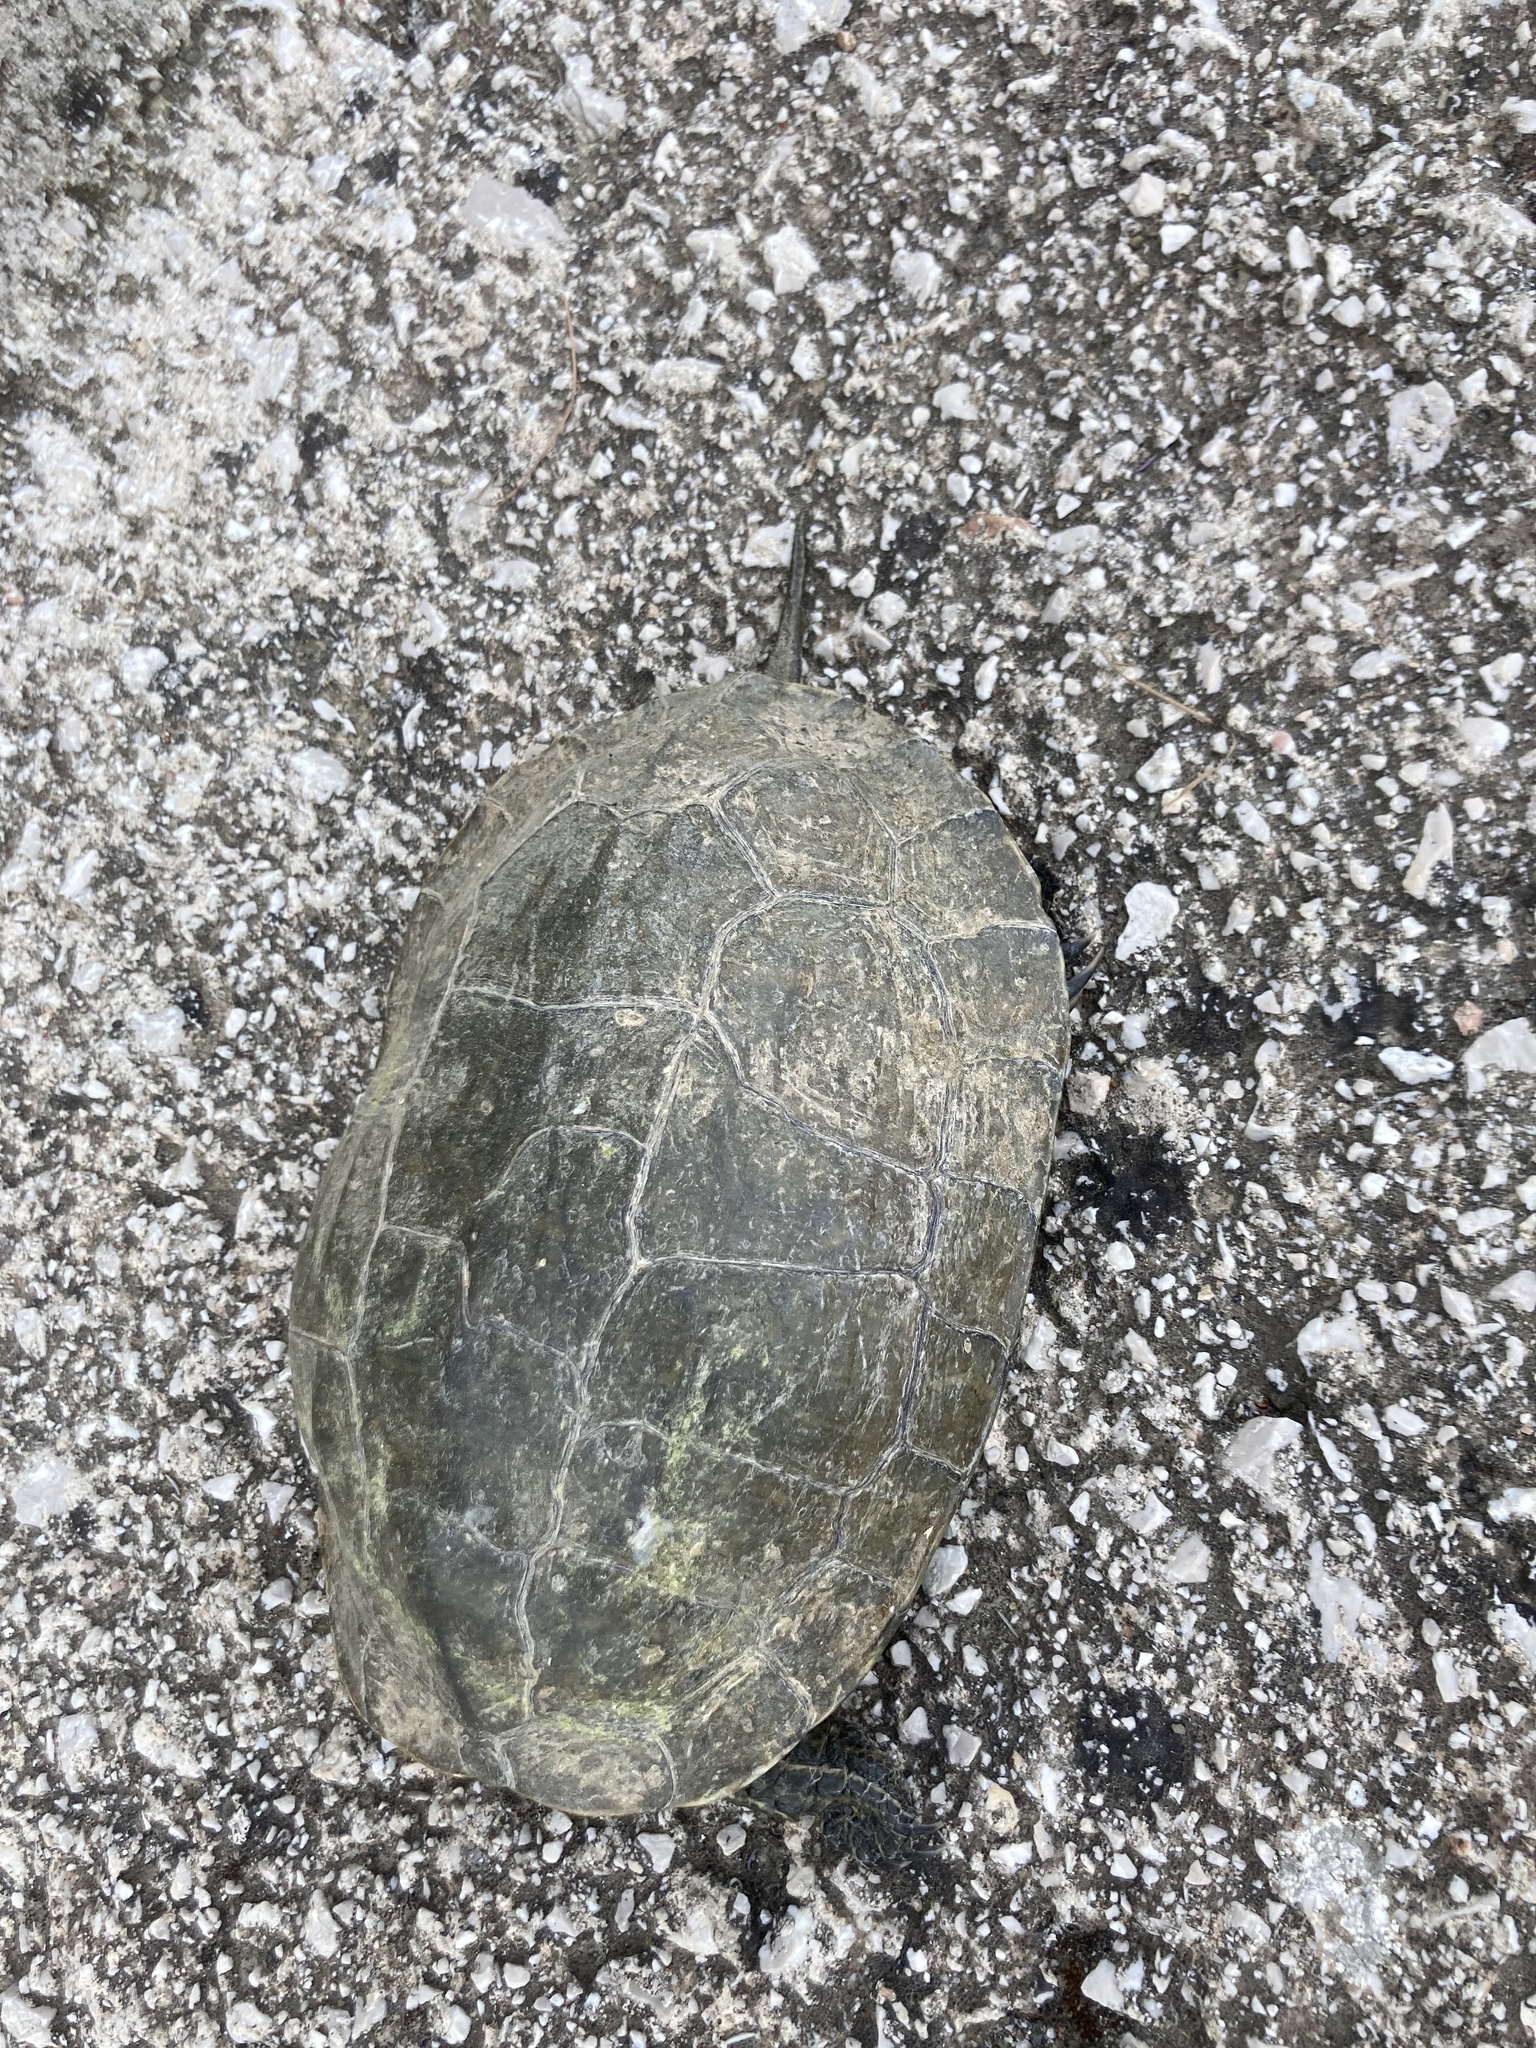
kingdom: Animalia
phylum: Chordata
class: Testudines
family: Geoemydidae
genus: Mauremys
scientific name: Mauremys rivulata
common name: Western caspian turtle
